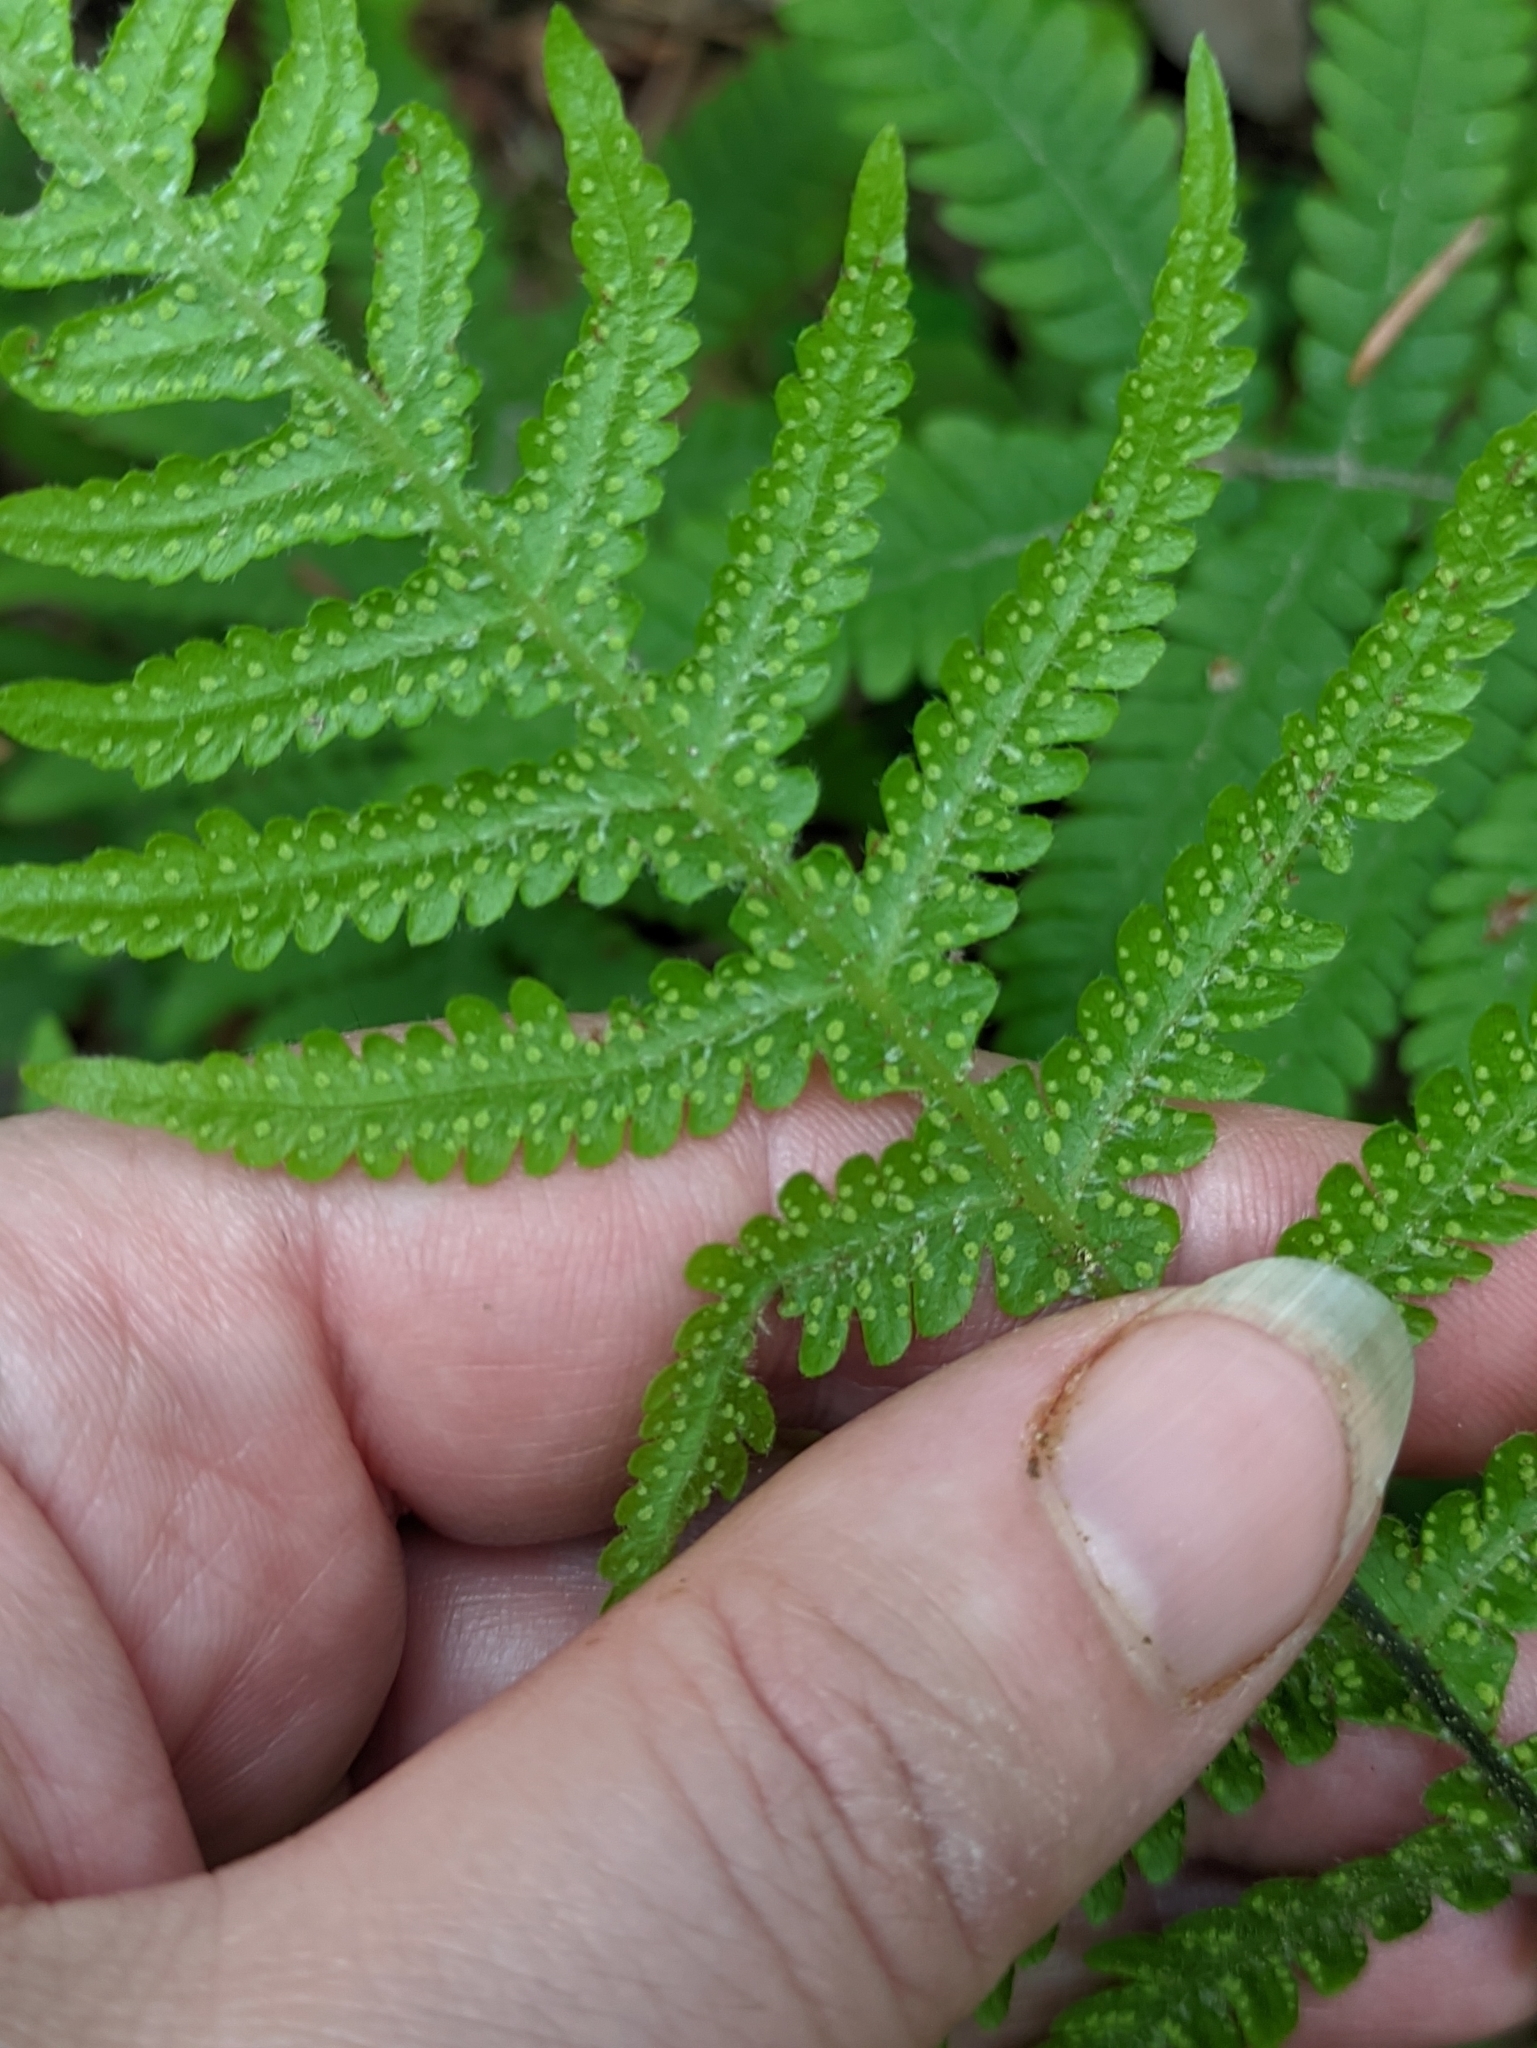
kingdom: Plantae
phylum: Tracheophyta
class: Polypodiopsida
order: Polypodiales
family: Thelypteridaceae
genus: Phegopteris
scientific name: Phegopteris connectilis
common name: Beech fern
